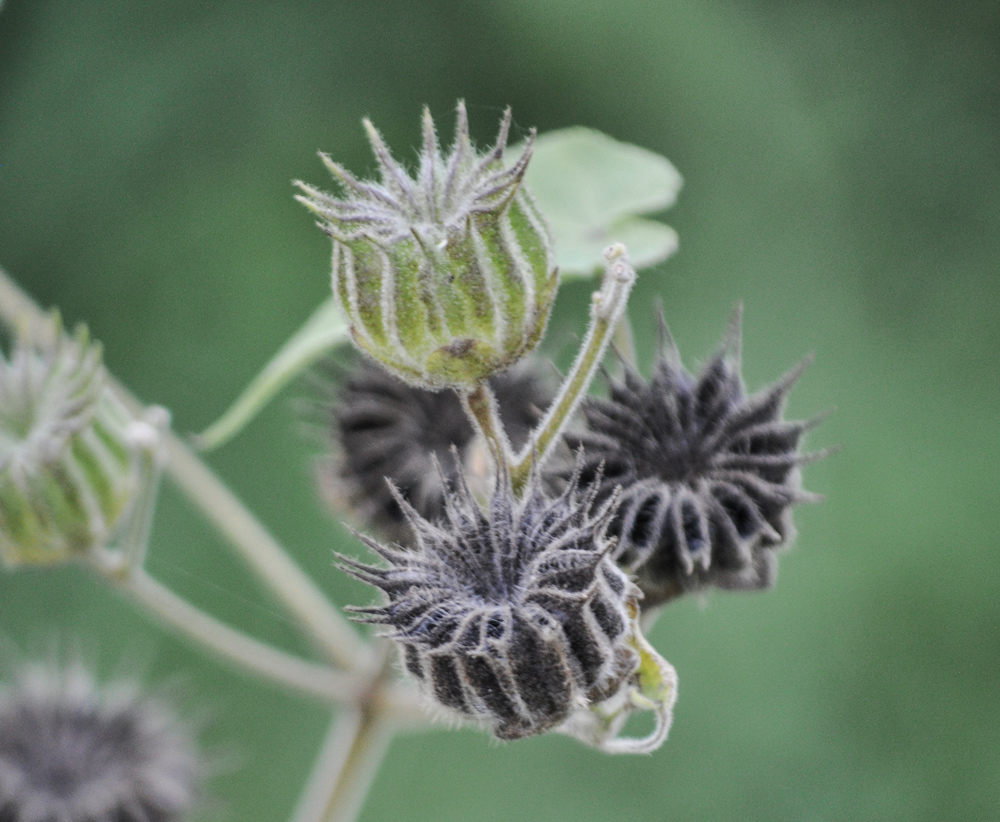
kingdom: Plantae
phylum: Tracheophyta
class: Magnoliopsida
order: Malvales
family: Malvaceae
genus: Abutilon
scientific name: Abutilon theophrasti
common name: Velvetleaf
